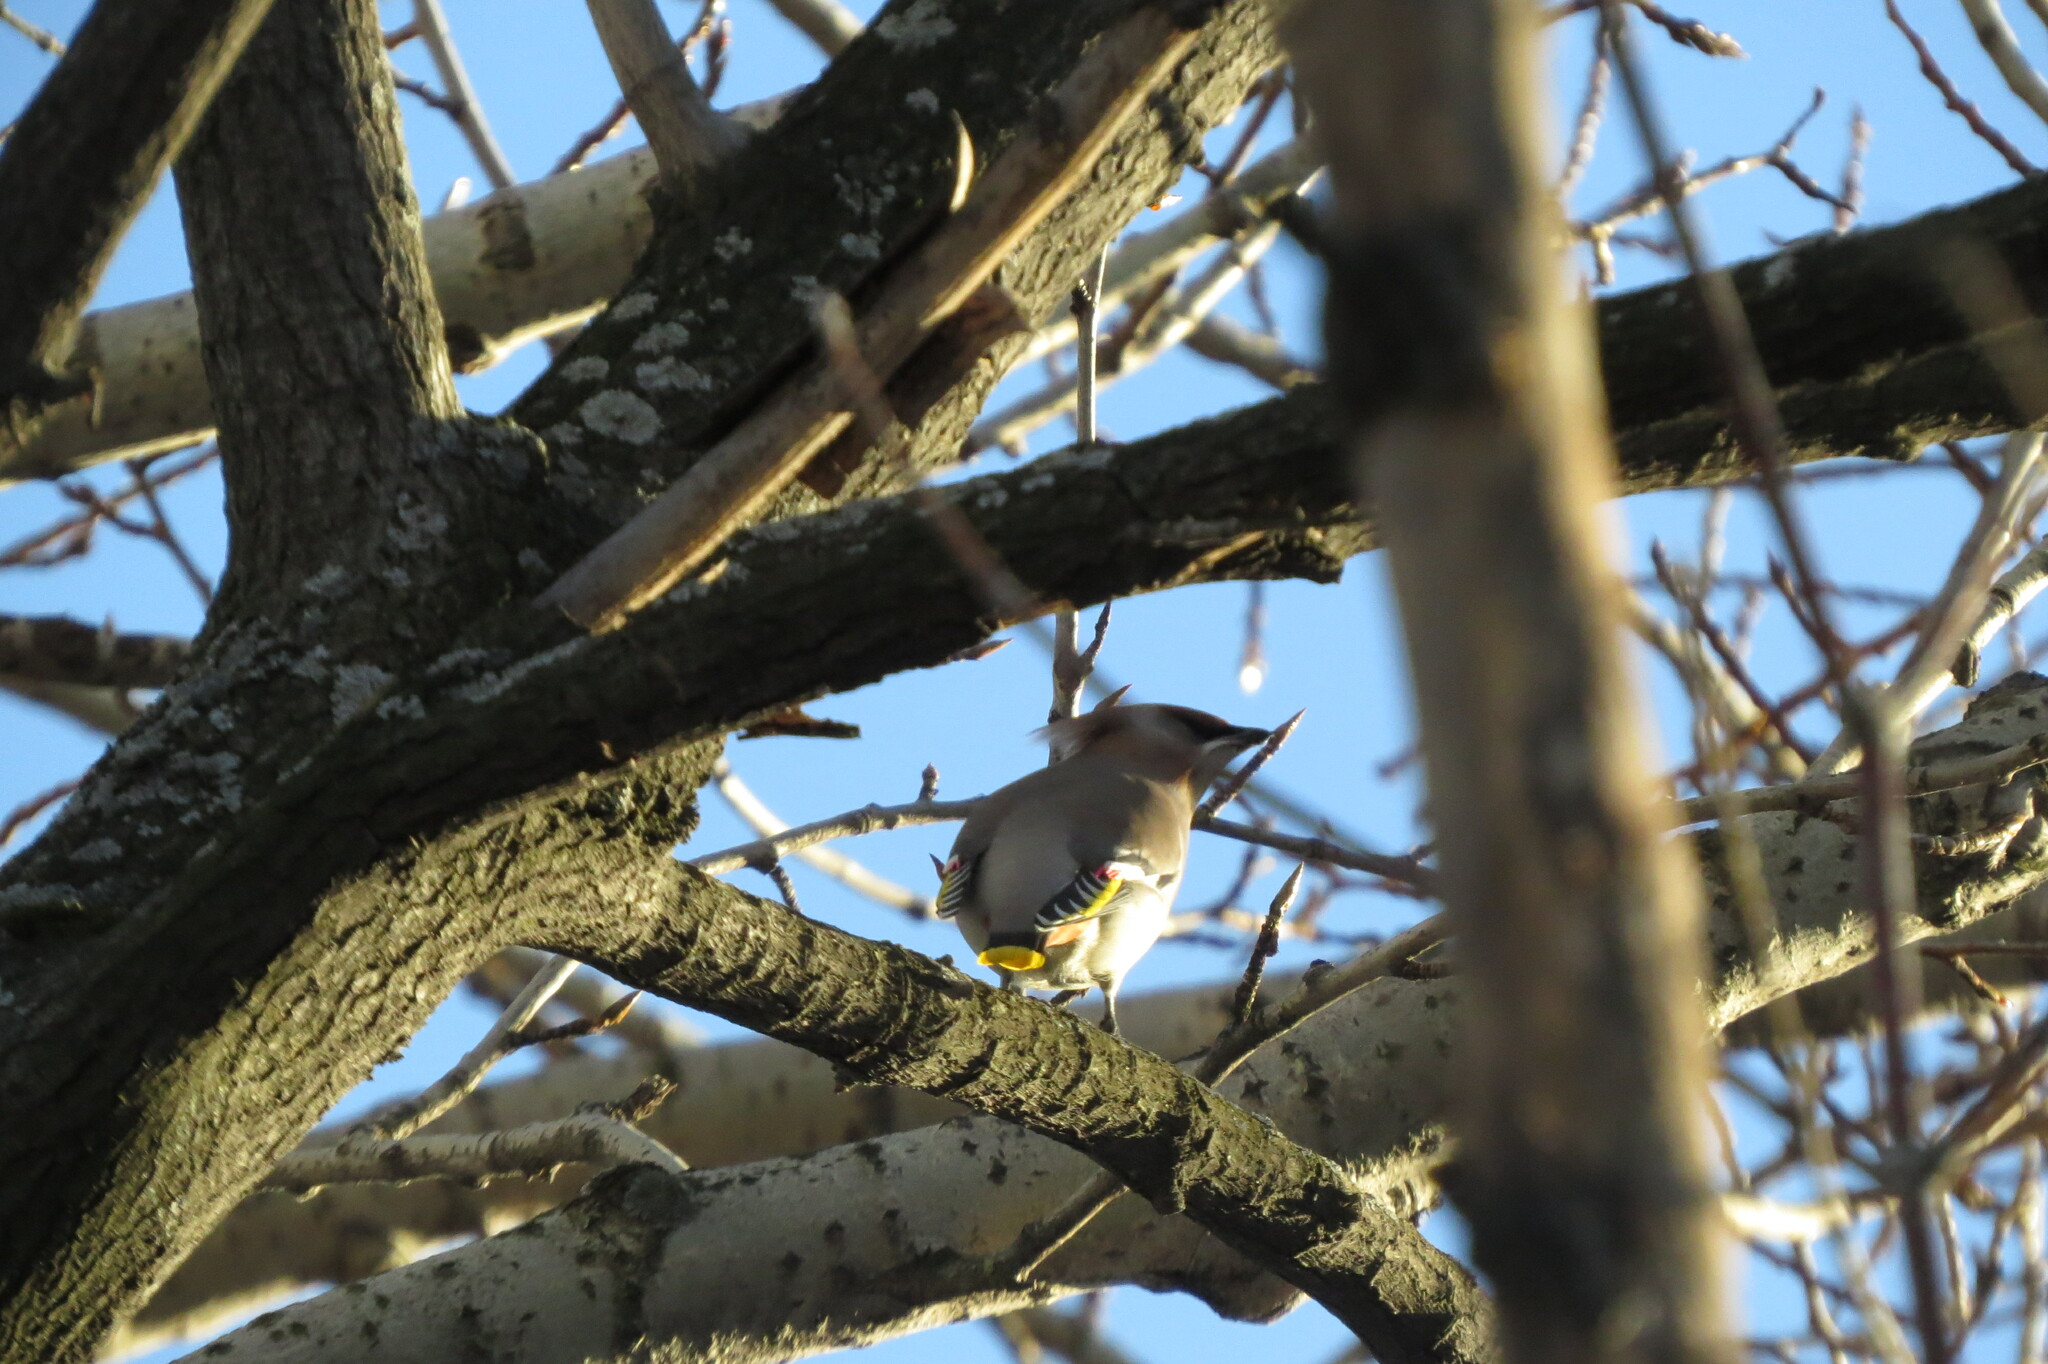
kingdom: Animalia
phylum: Chordata
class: Aves
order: Passeriformes
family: Bombycillidae
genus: Bombycilla
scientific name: Bombycilla garrulus
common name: Bohemian waxwing
